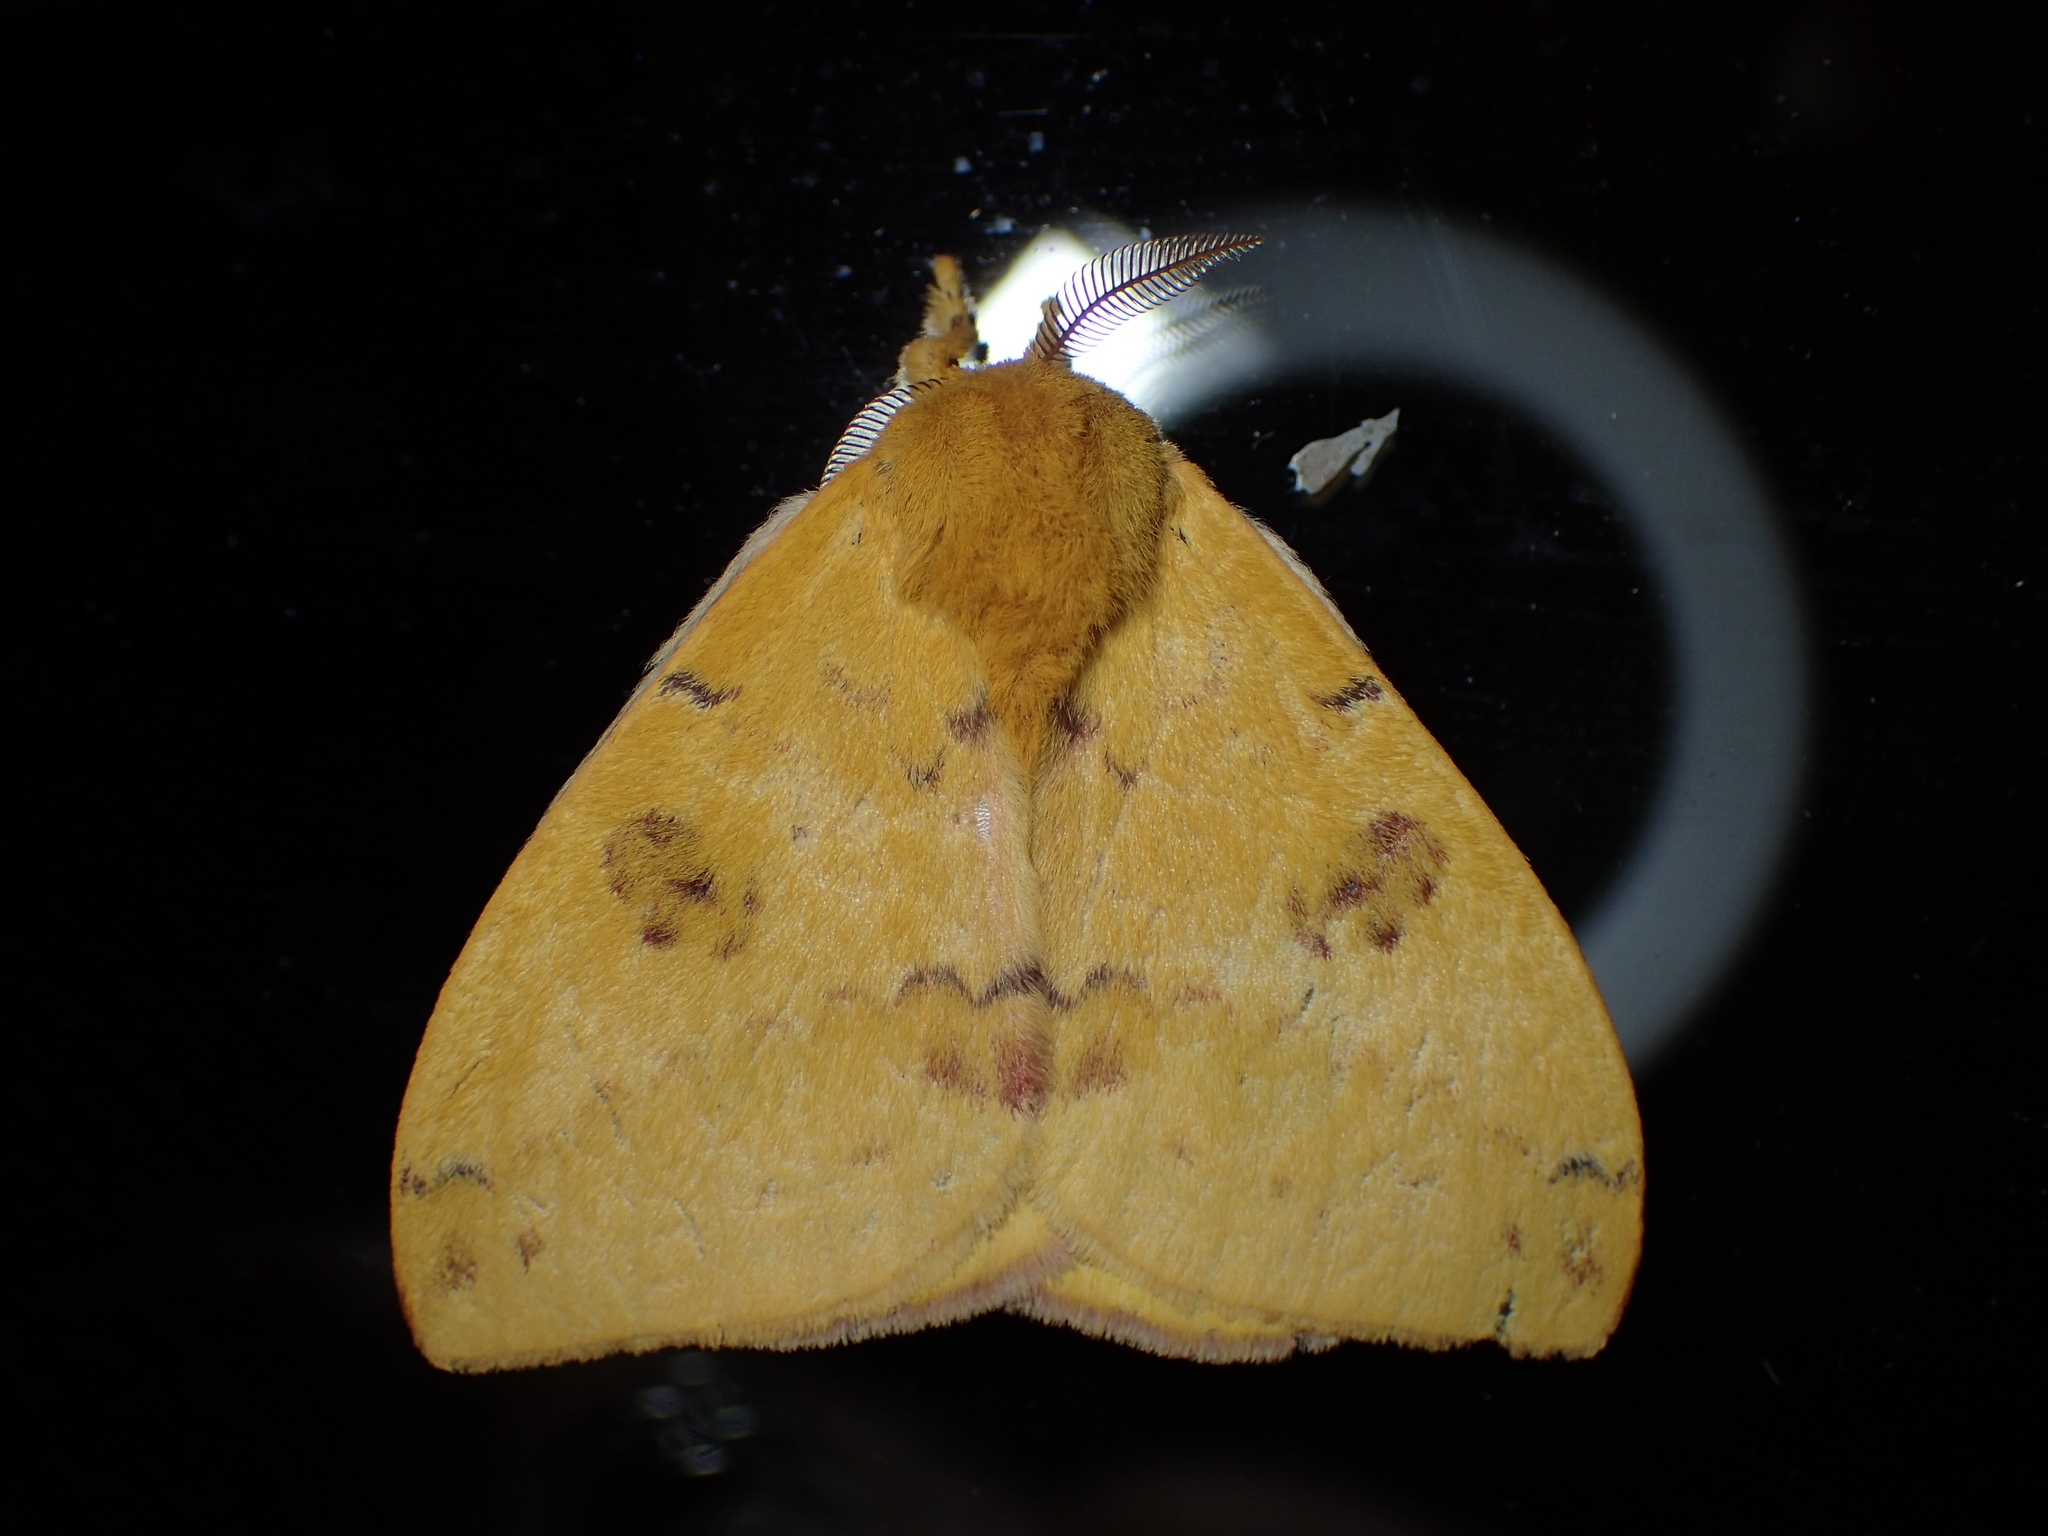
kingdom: Animalia
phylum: Arthropoda
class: Insecta
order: Lepidoptera
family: Saturniidae
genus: Automeris
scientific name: Automeris io
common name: Io moth
